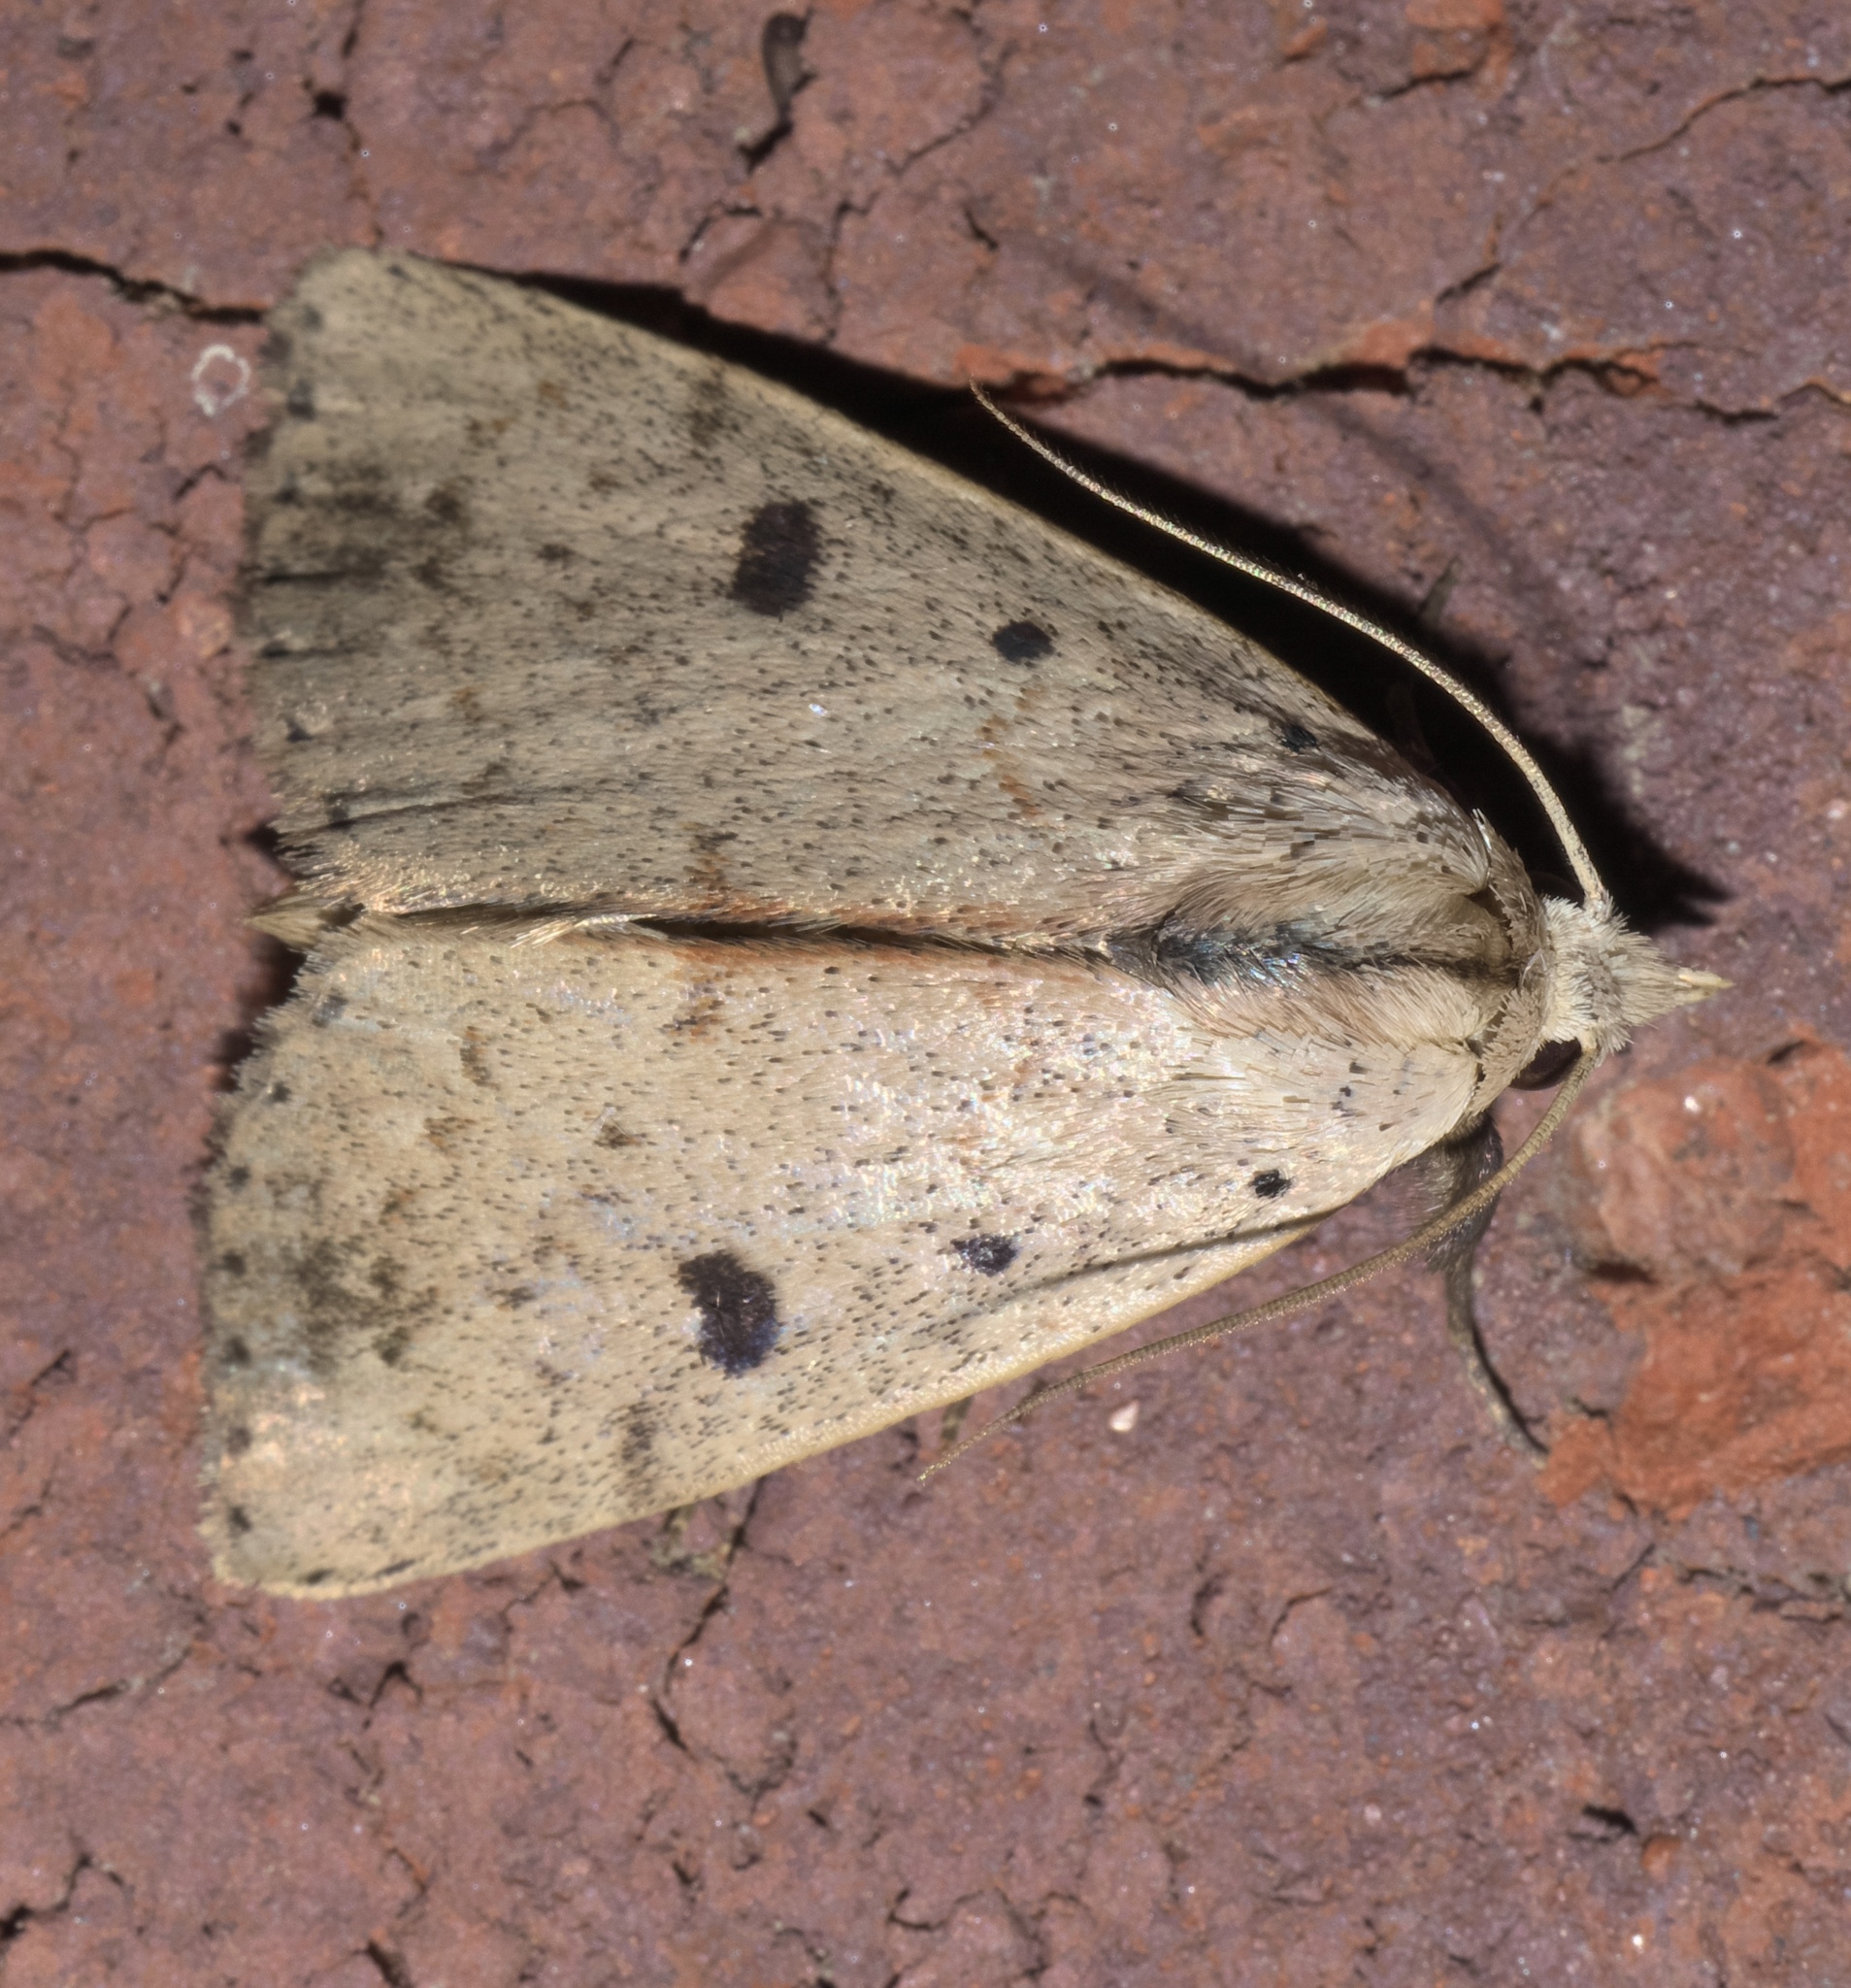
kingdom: Animalia
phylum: Arthropoda
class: Insecta
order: Lepidoptera
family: Erebidae
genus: Scolecocampa
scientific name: Scolecocampa liburna
